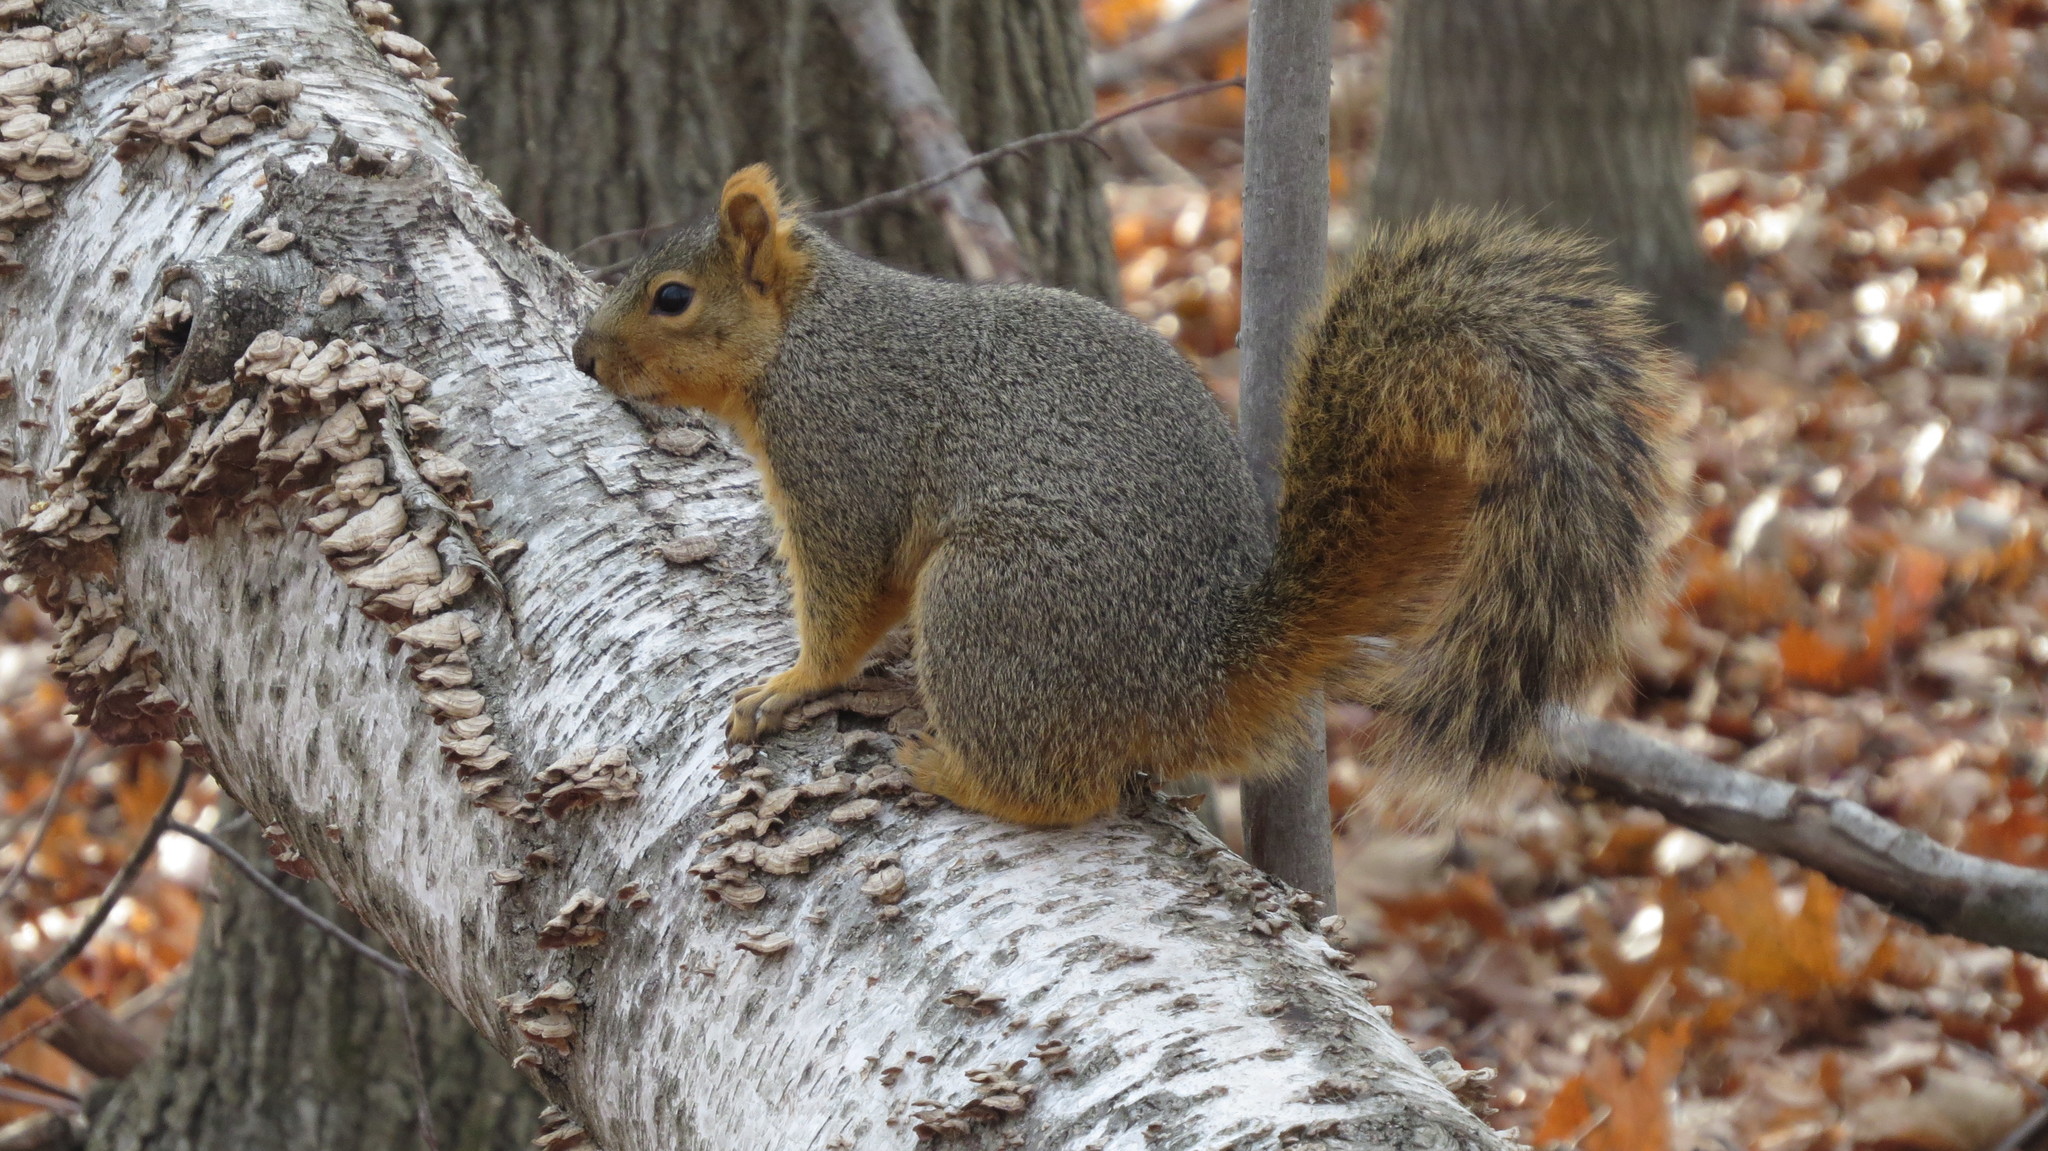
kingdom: Animalia
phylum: Chordata
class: Mammalia
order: Rodentia
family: Sciuridae
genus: Sciurus
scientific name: Sciurus niger
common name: Fox squirrel
